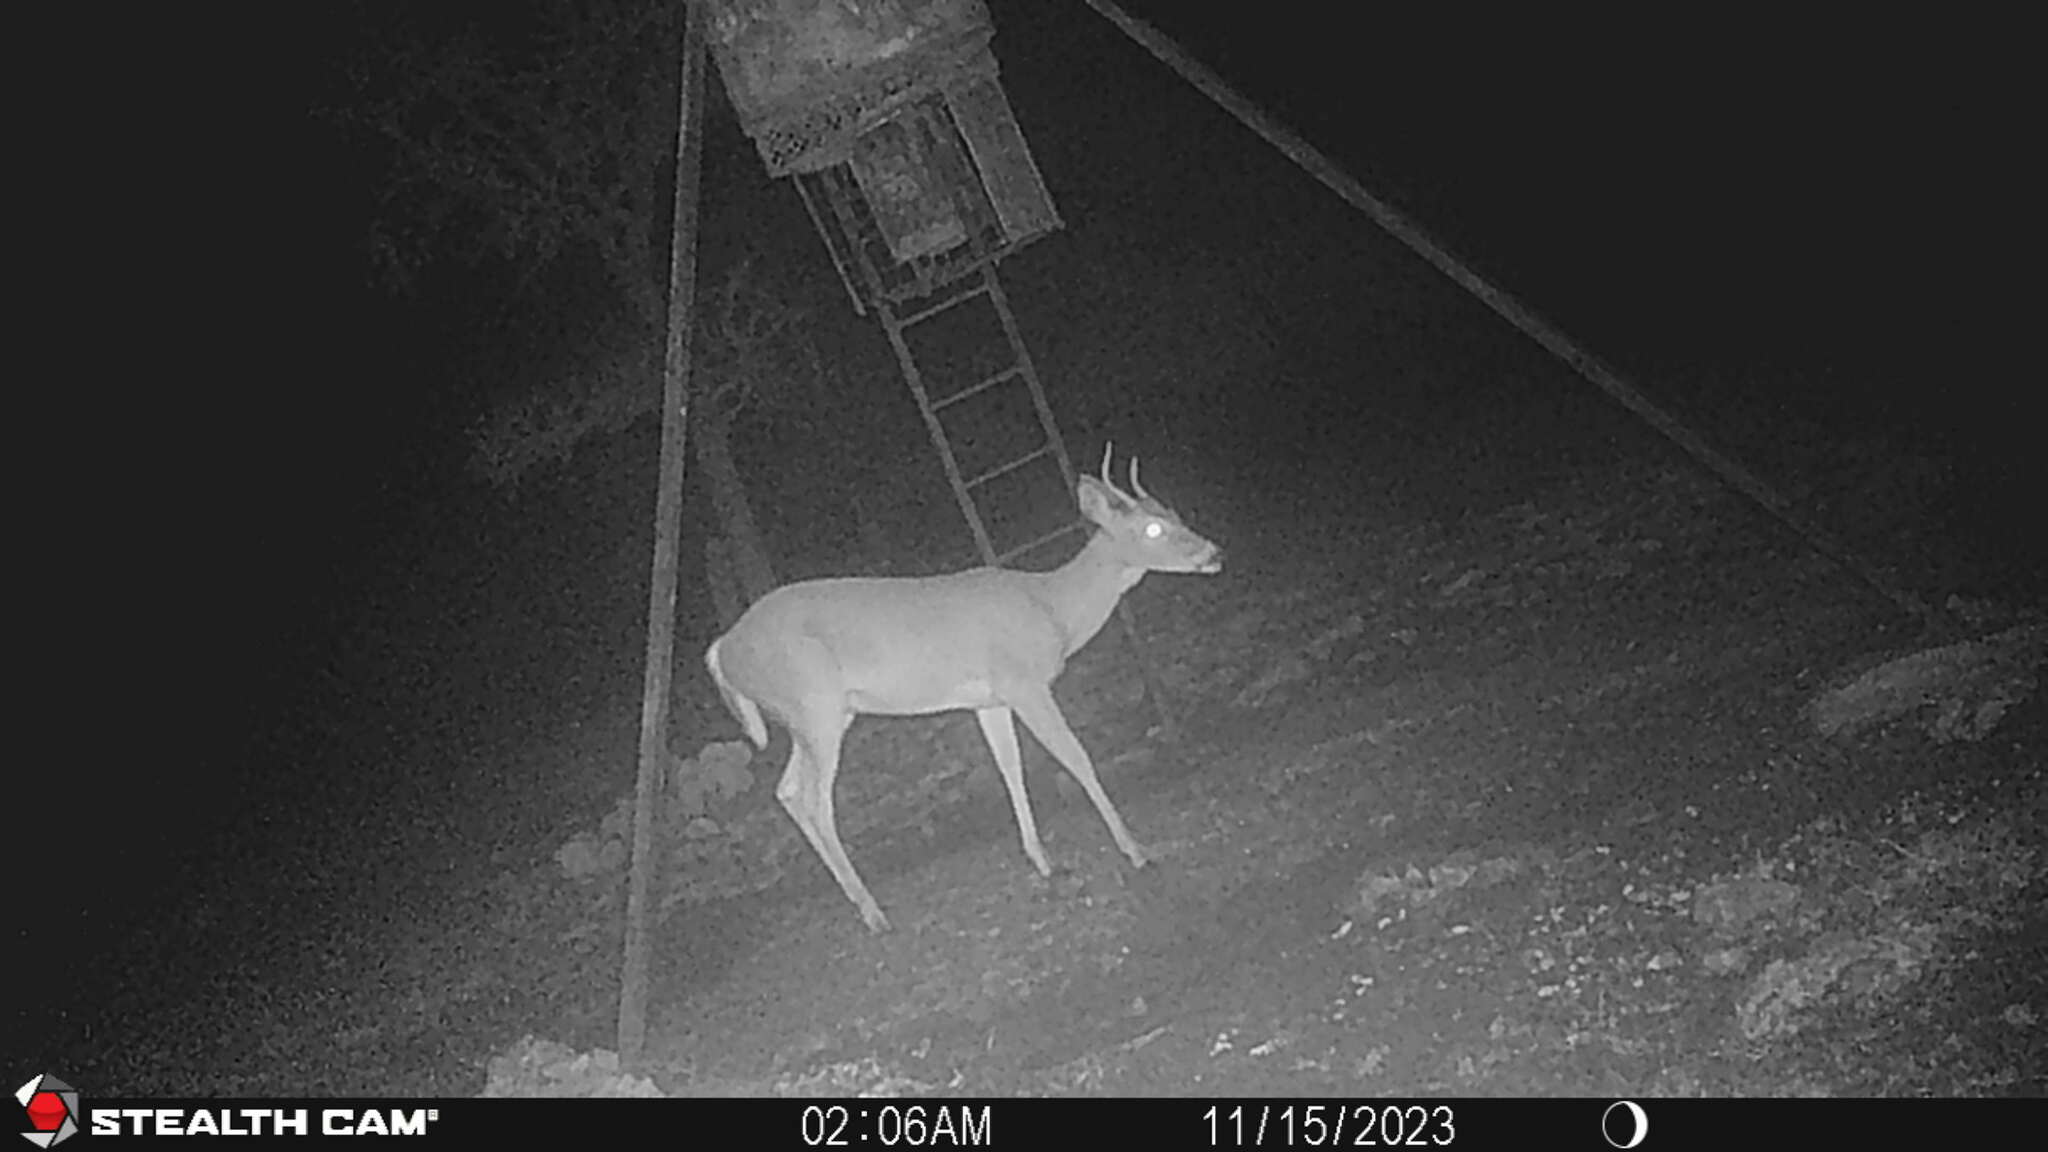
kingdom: Animalia
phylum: Chordata
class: Mammalia
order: Artiodactyla
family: Cervidae
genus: Odocoileus
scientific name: Odocoileus virginianus
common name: White-tailed deer
